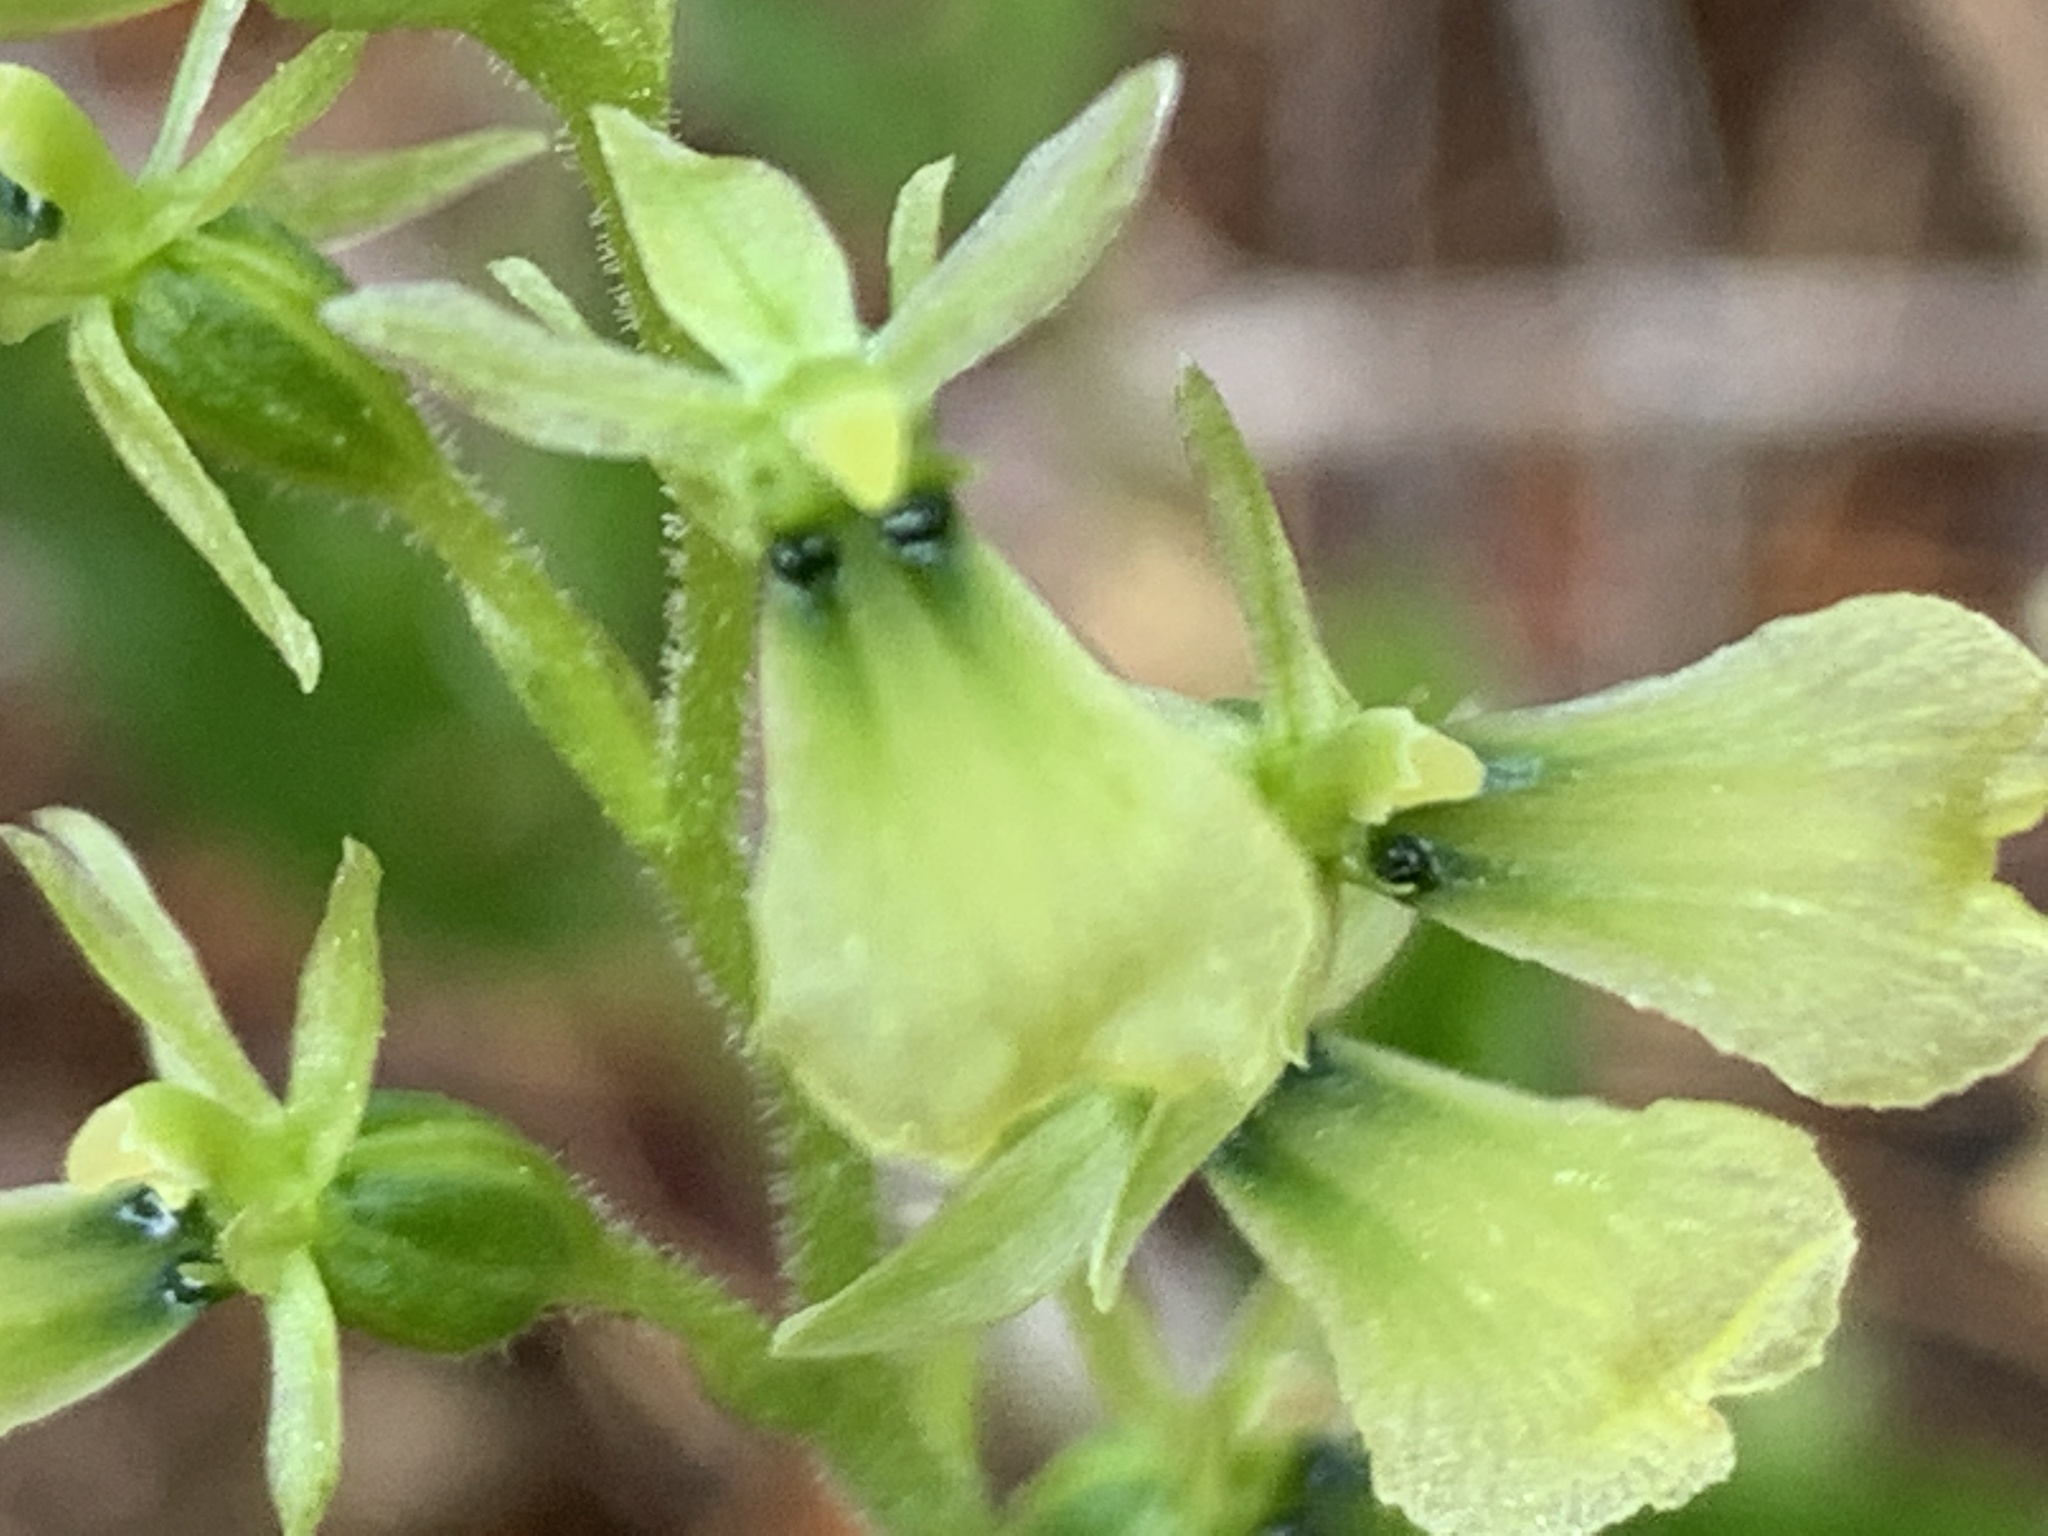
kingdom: Plantae
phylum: Tracheophyta
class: Liliopsida
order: Asparagales
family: Orchidaceae
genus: Neottia
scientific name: Neottia banksiana
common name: Northwestern twayblade
